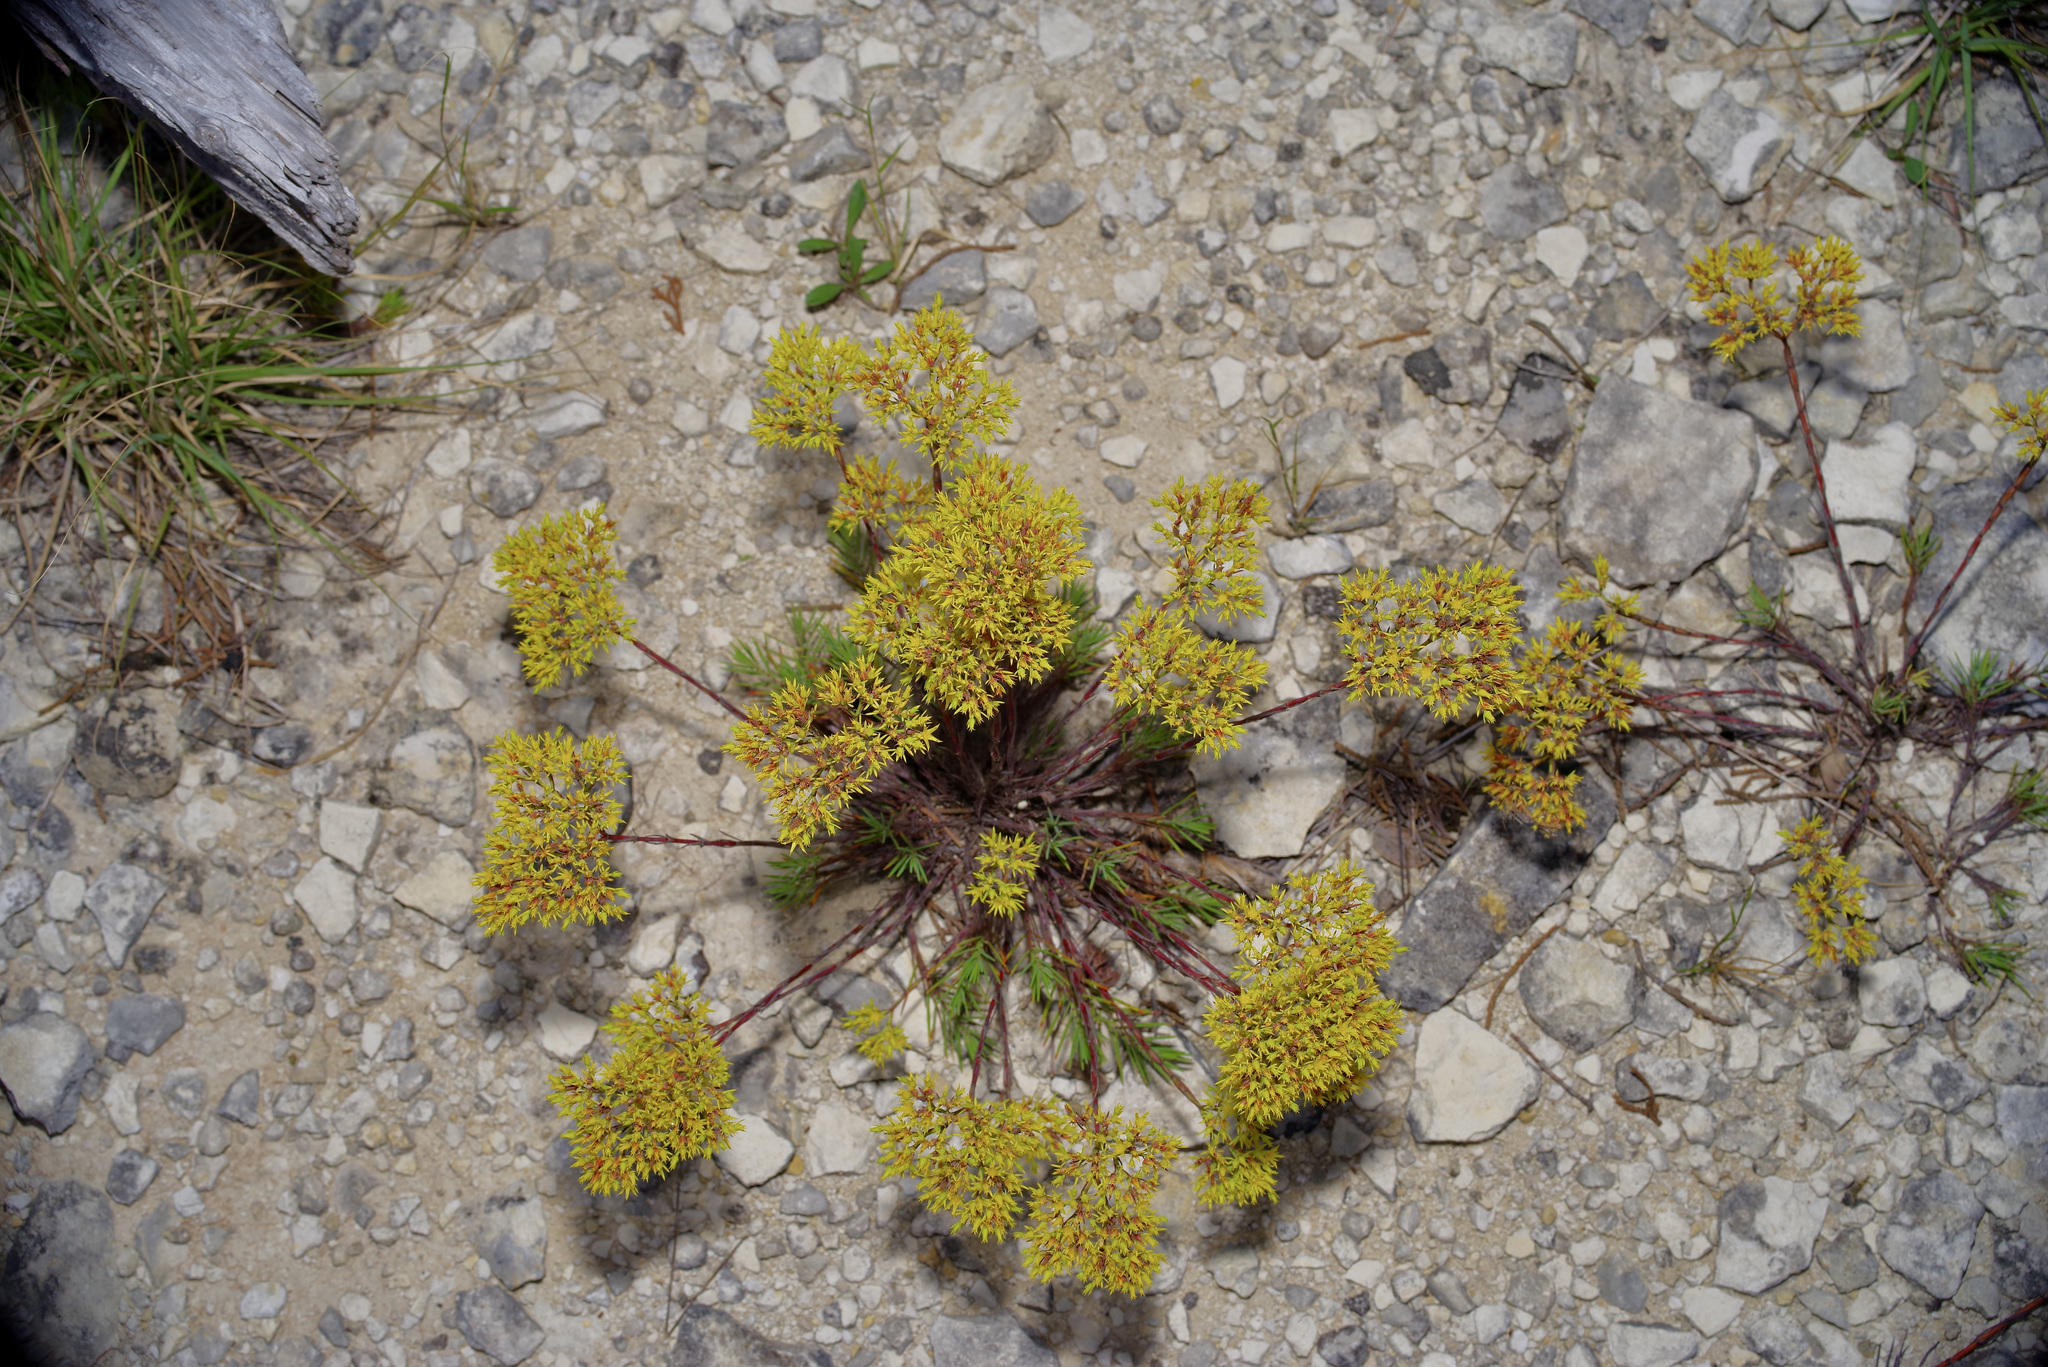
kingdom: Plantae
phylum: Tracheophyta
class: Magnoliopsida
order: Caryophyllales
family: Caryophyllaceae
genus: Paronychia
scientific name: Paronychia virginica
